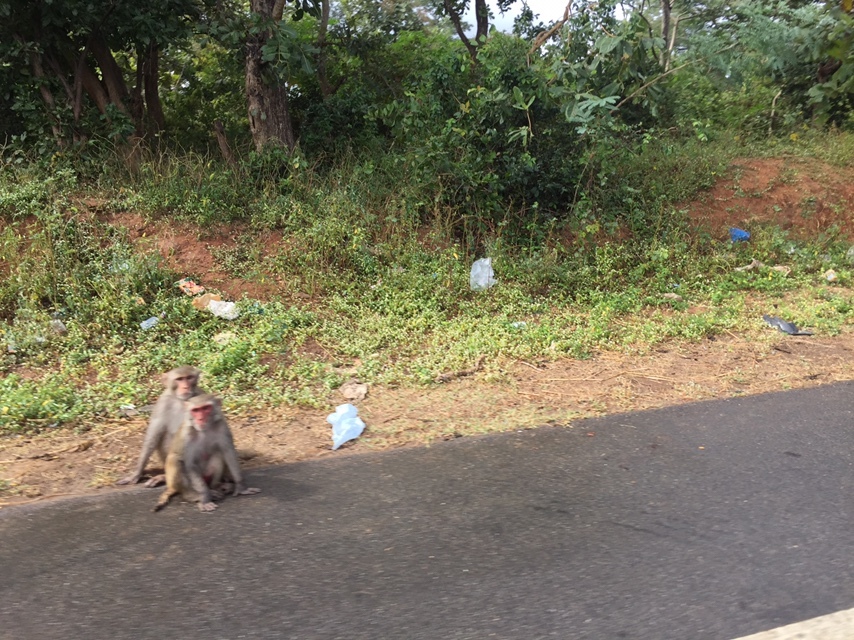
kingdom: Animalia
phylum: Chordata
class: Mammalia
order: Primates
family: Cercopithecidae
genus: Macaca
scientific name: Macaca mulatta
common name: Rhesus monkey
